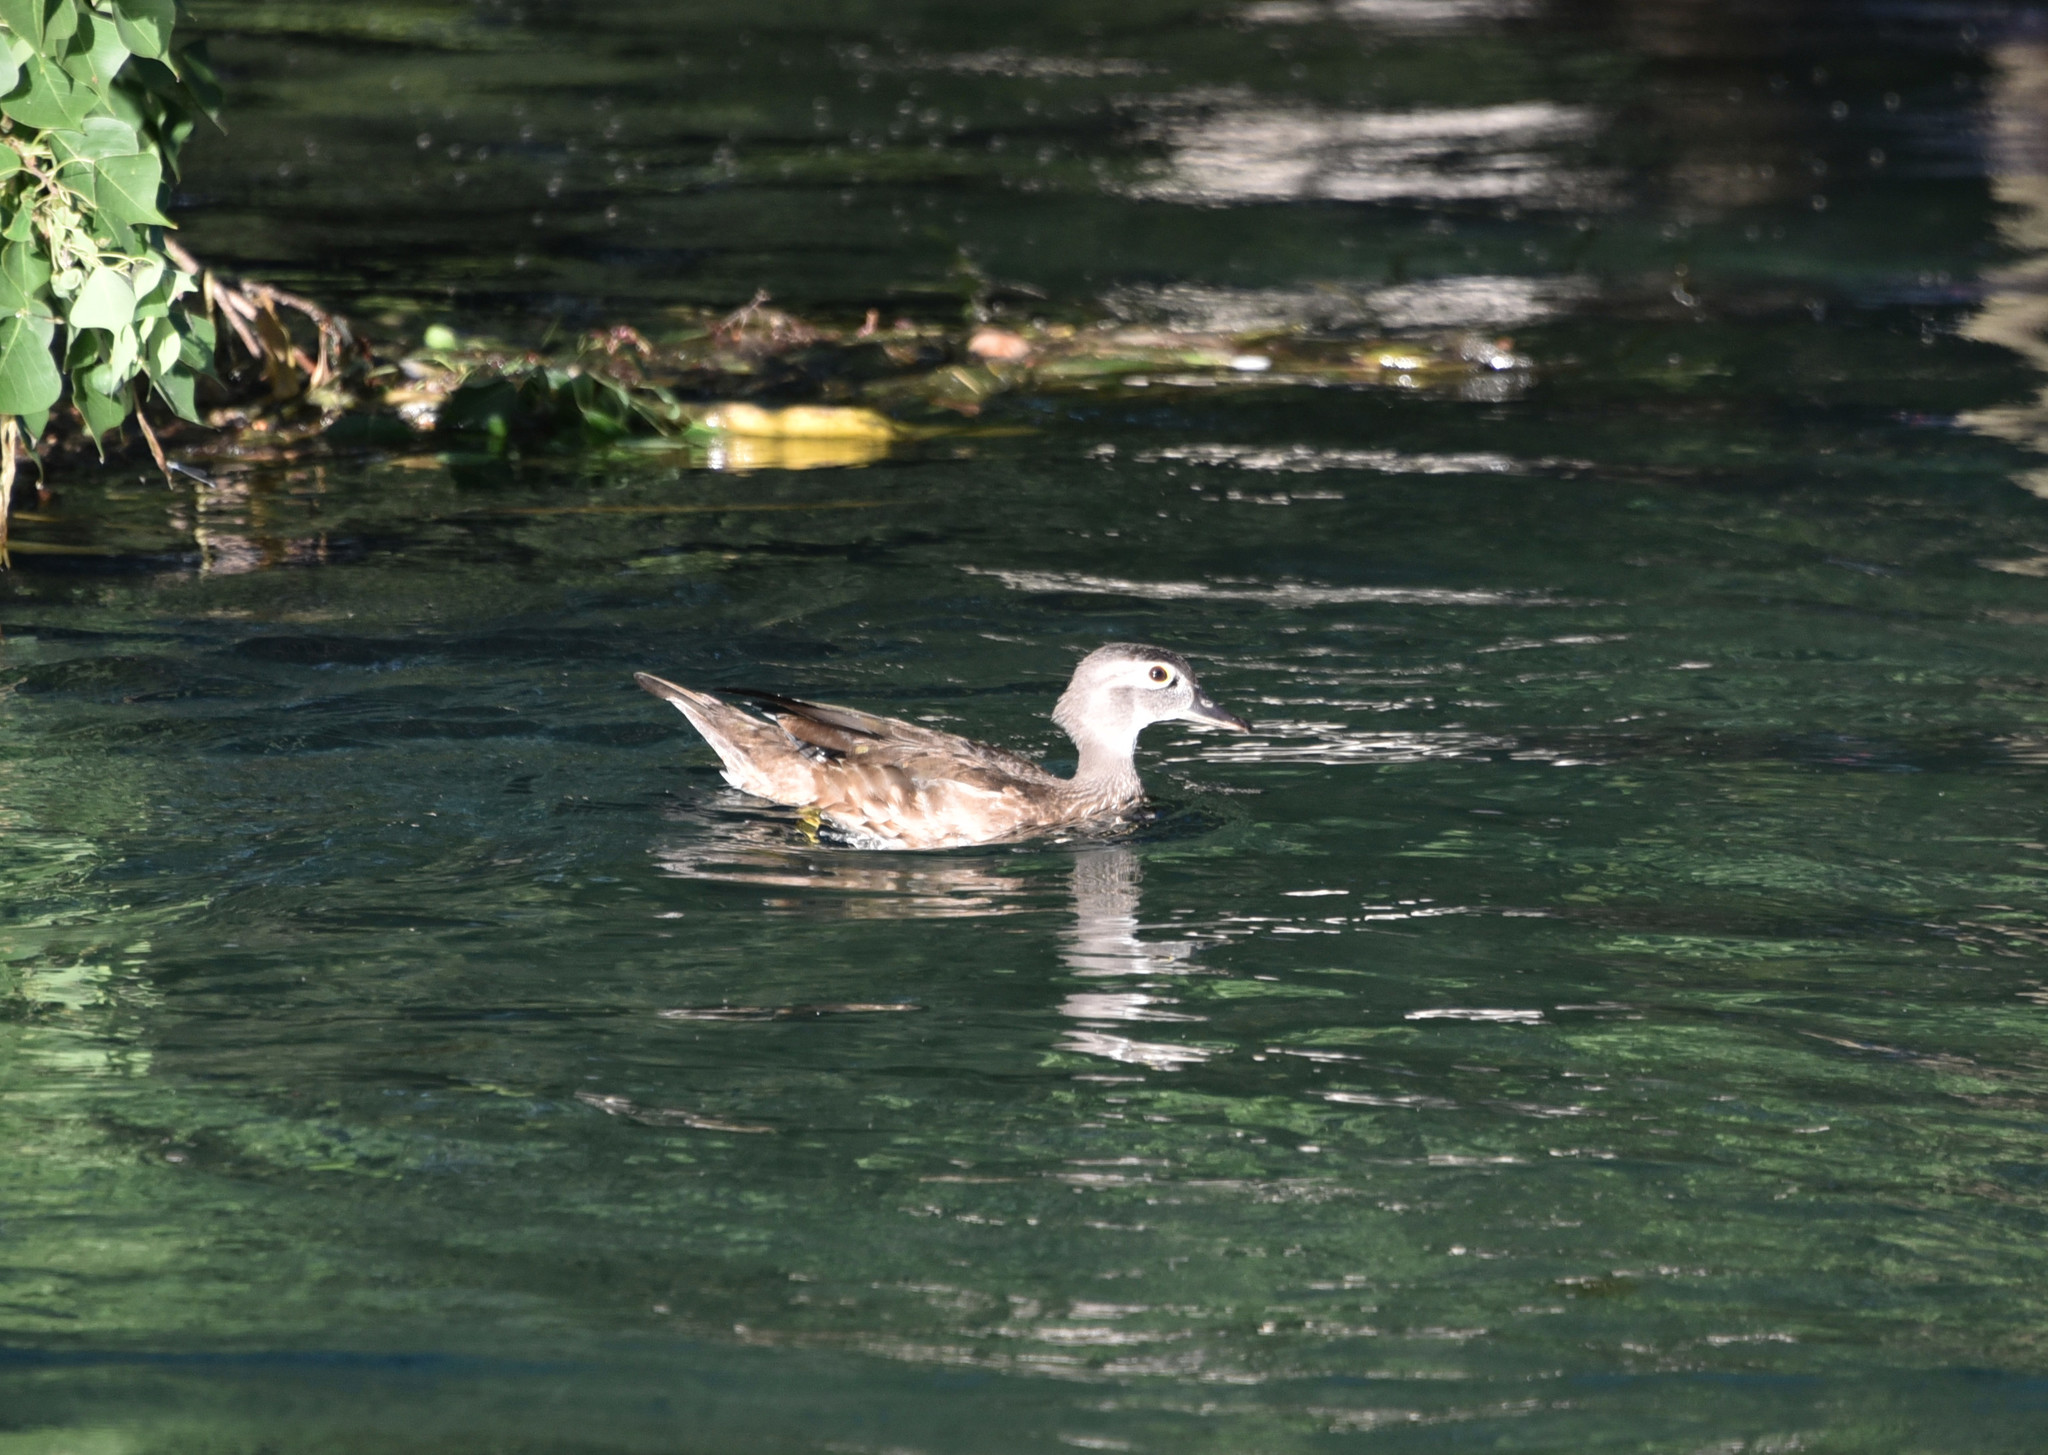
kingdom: Animalia
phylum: Chordata
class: Aves
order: Anseriformes
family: Anatidae
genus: Aix
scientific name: Aix sponsa
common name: Wood duck
